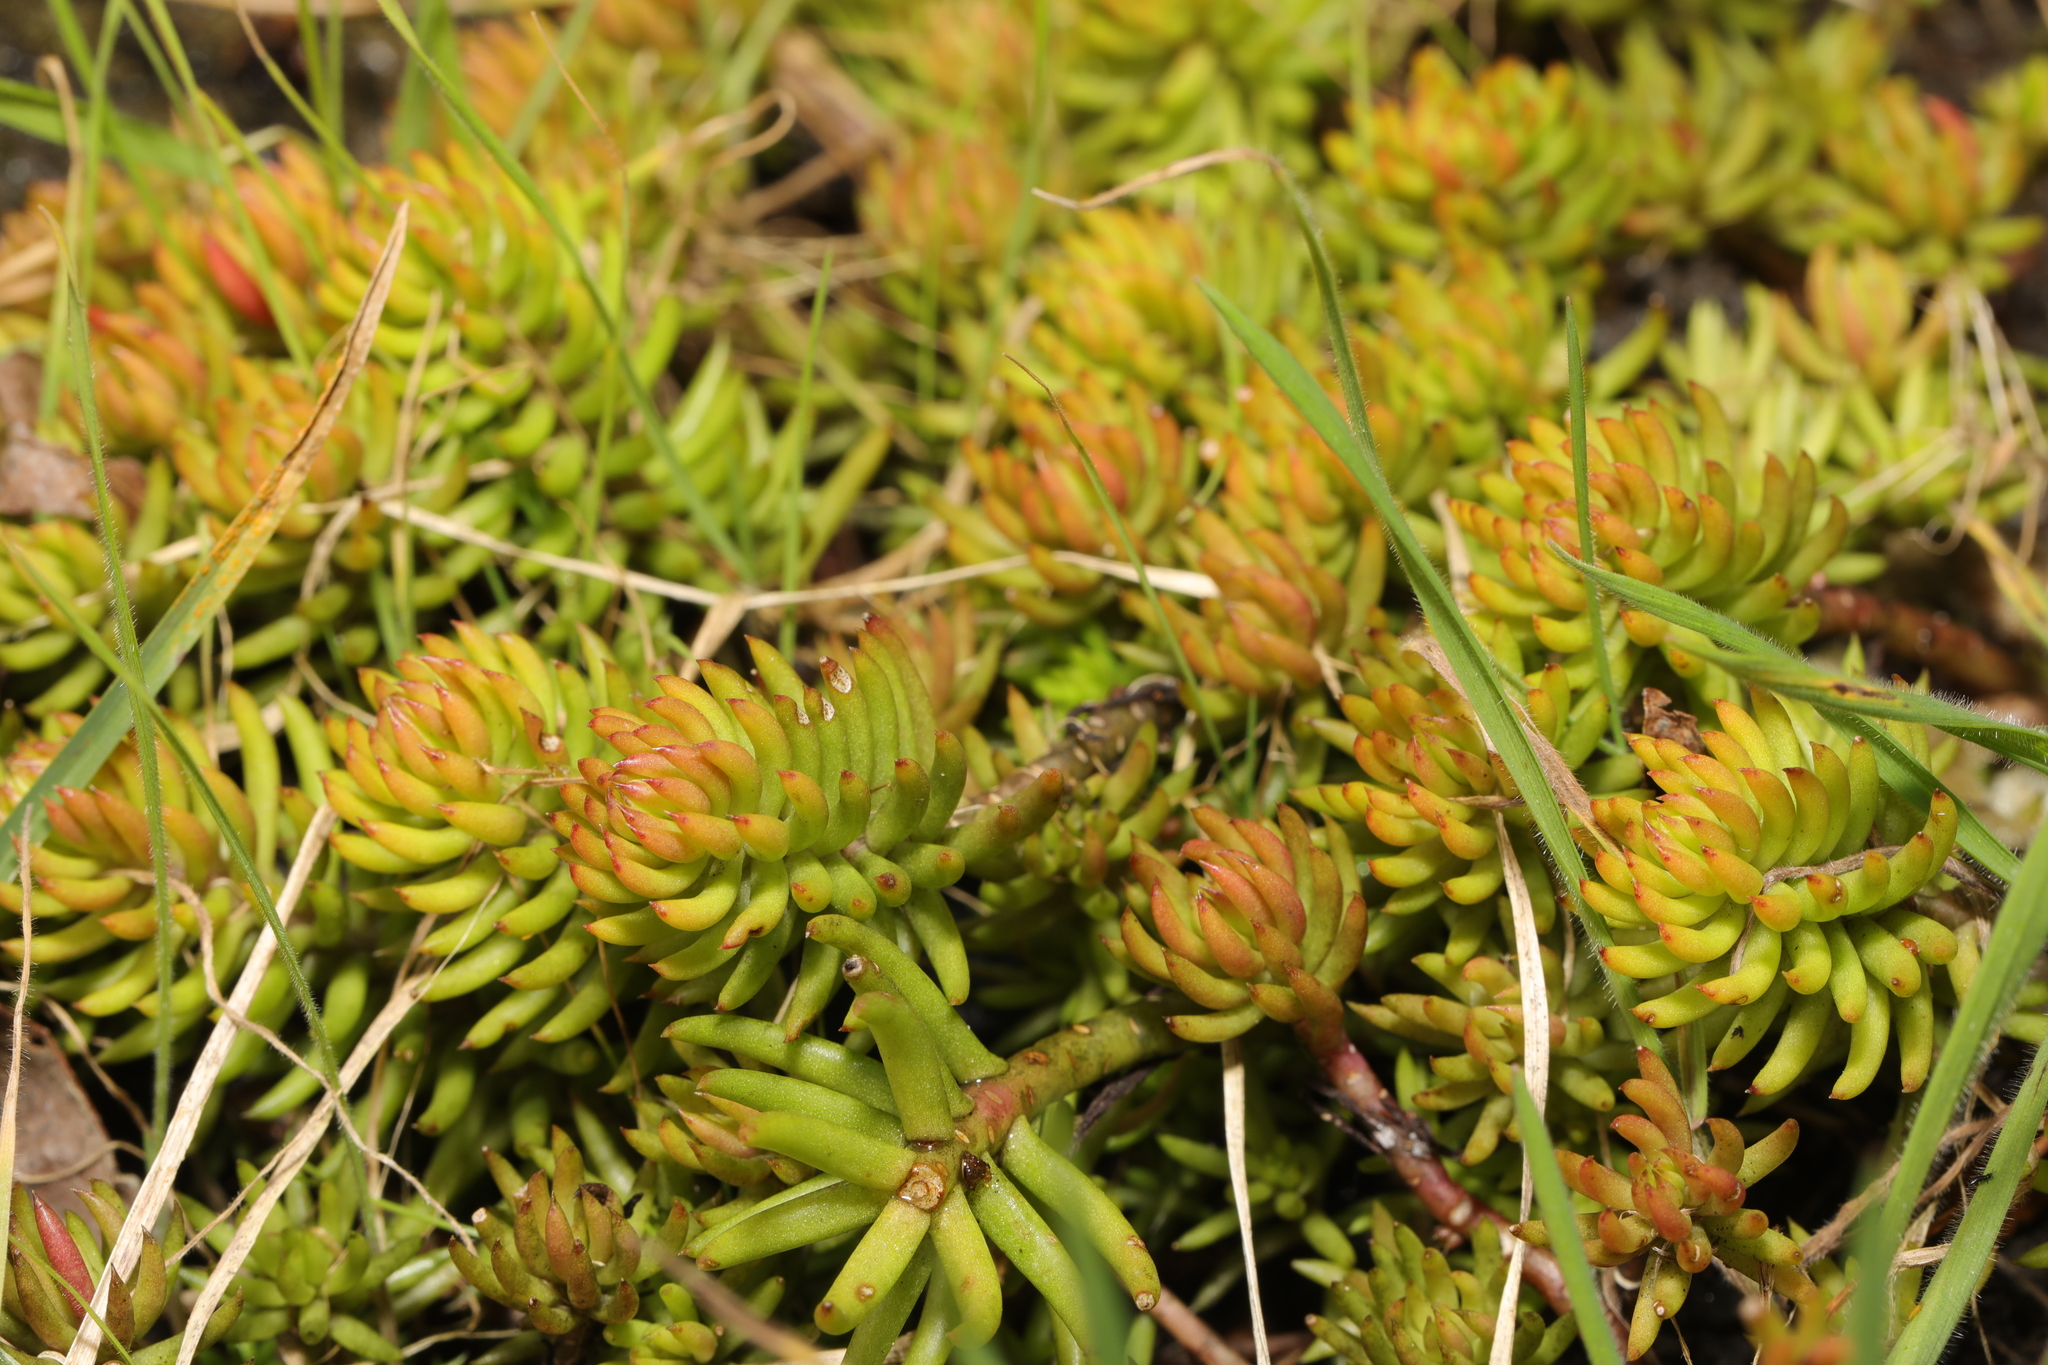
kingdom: Plantae
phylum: Tracheophyta
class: Magnoliopsida
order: Saxifragales
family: Crassulaceae
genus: Petrosedum
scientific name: Petrosedum rupestre
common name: Jenny's stonecrop
